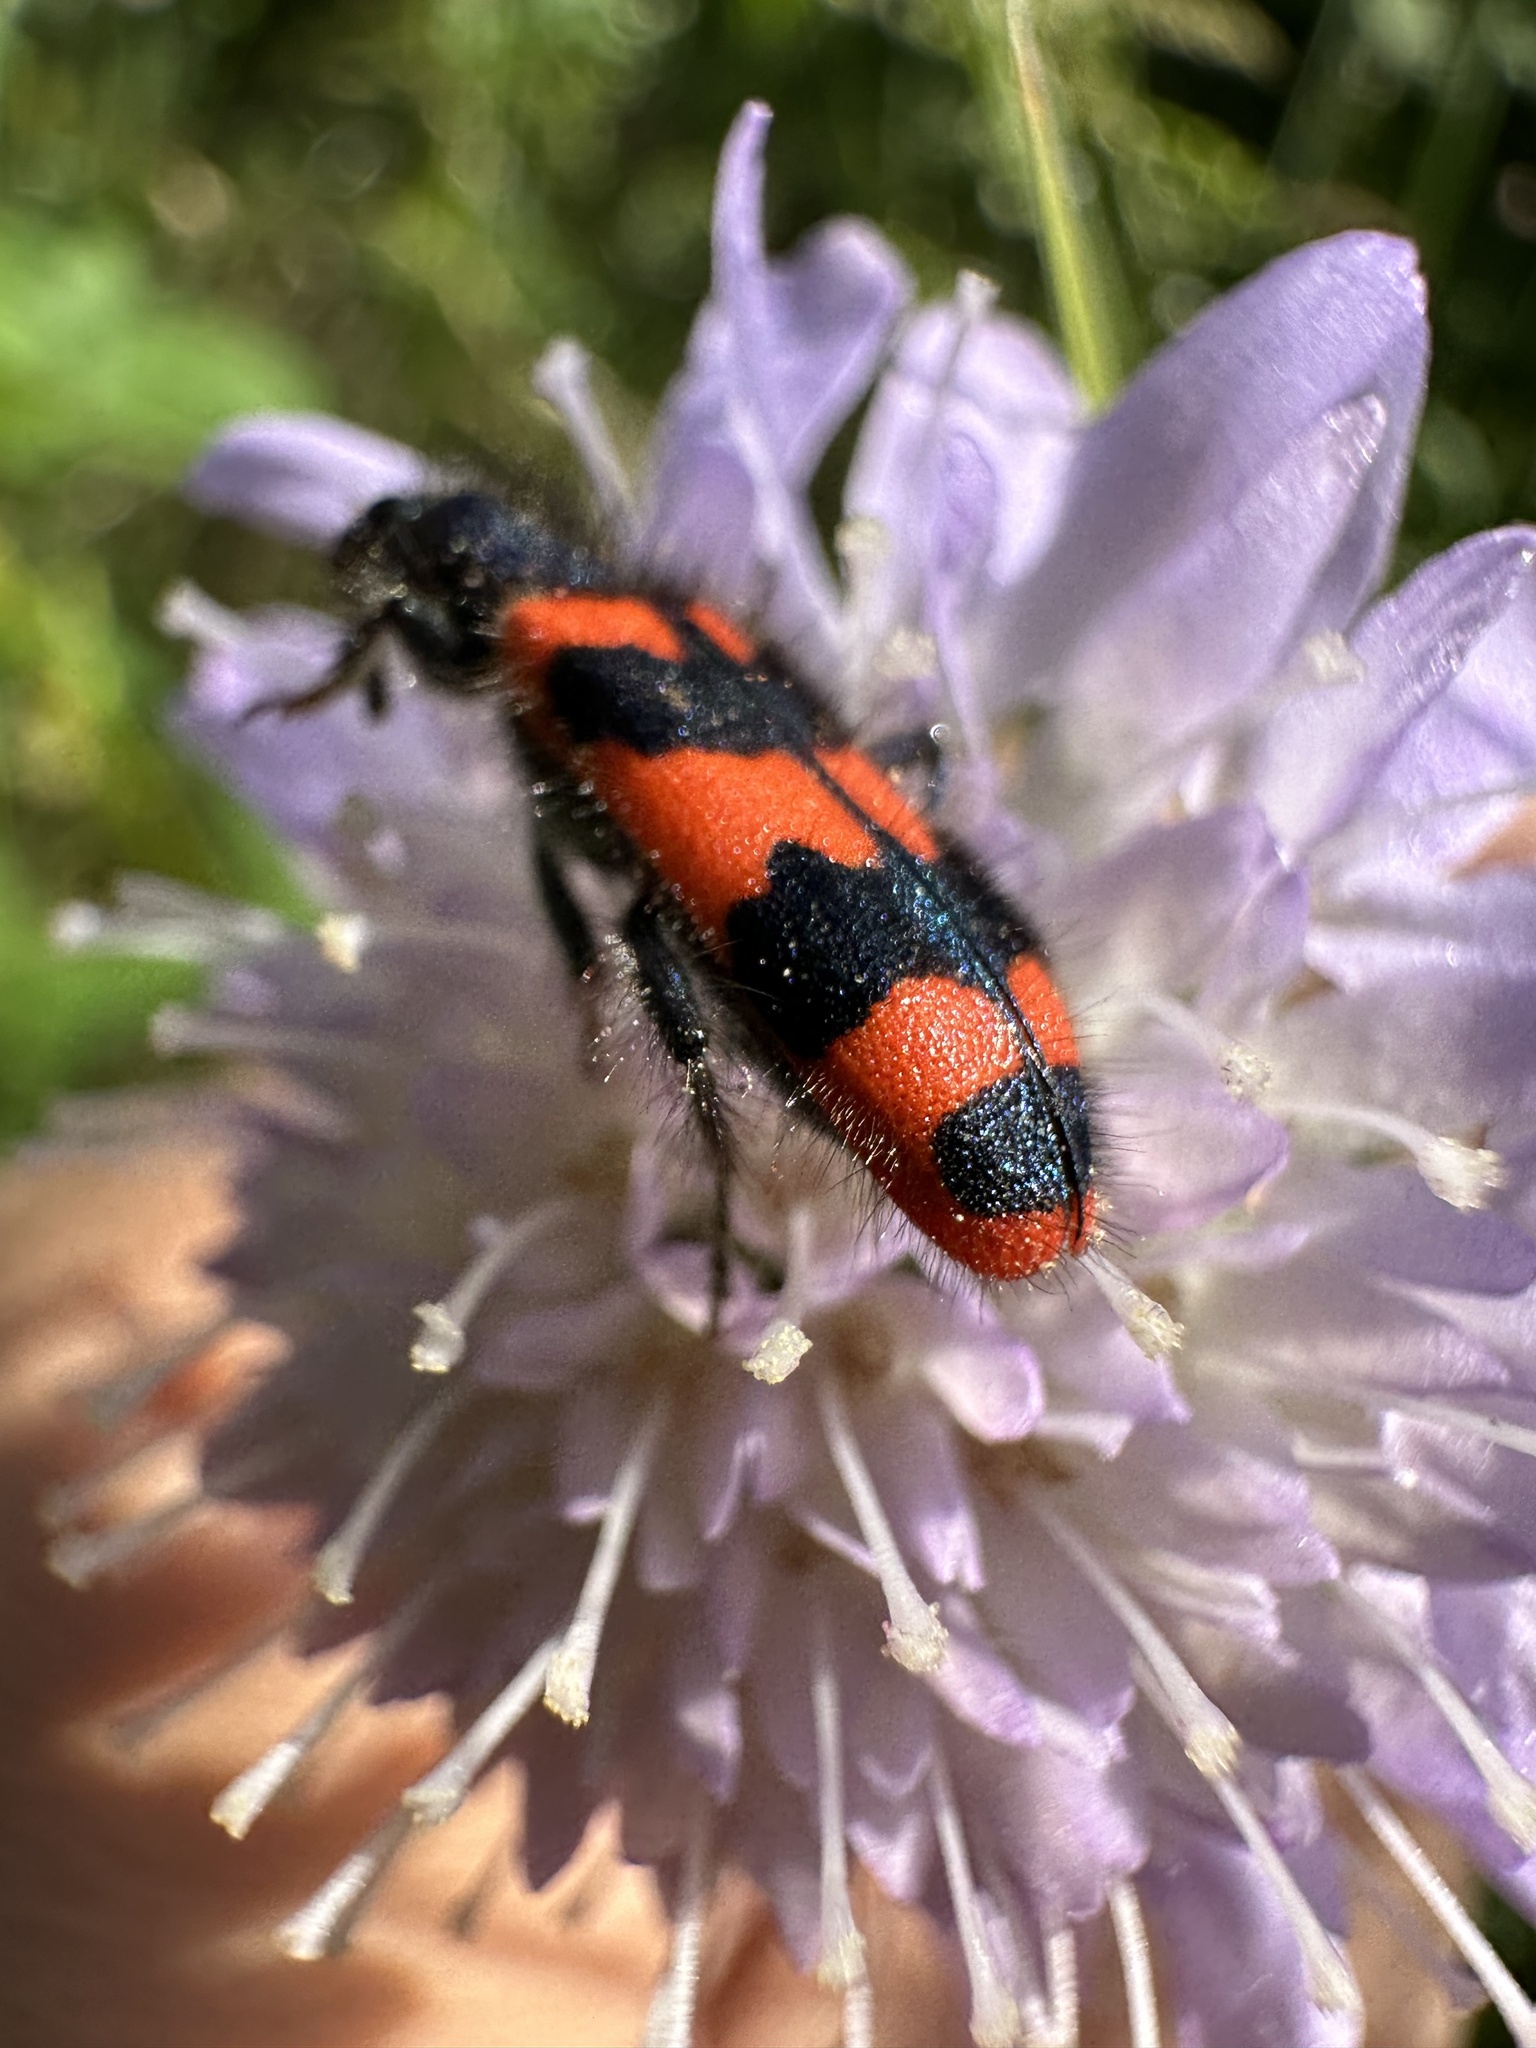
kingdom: Animalia
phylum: Arthropoda
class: Insecta
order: Coleoptera
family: Cleridae
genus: Trichodes
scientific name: Trichodes alvearius
